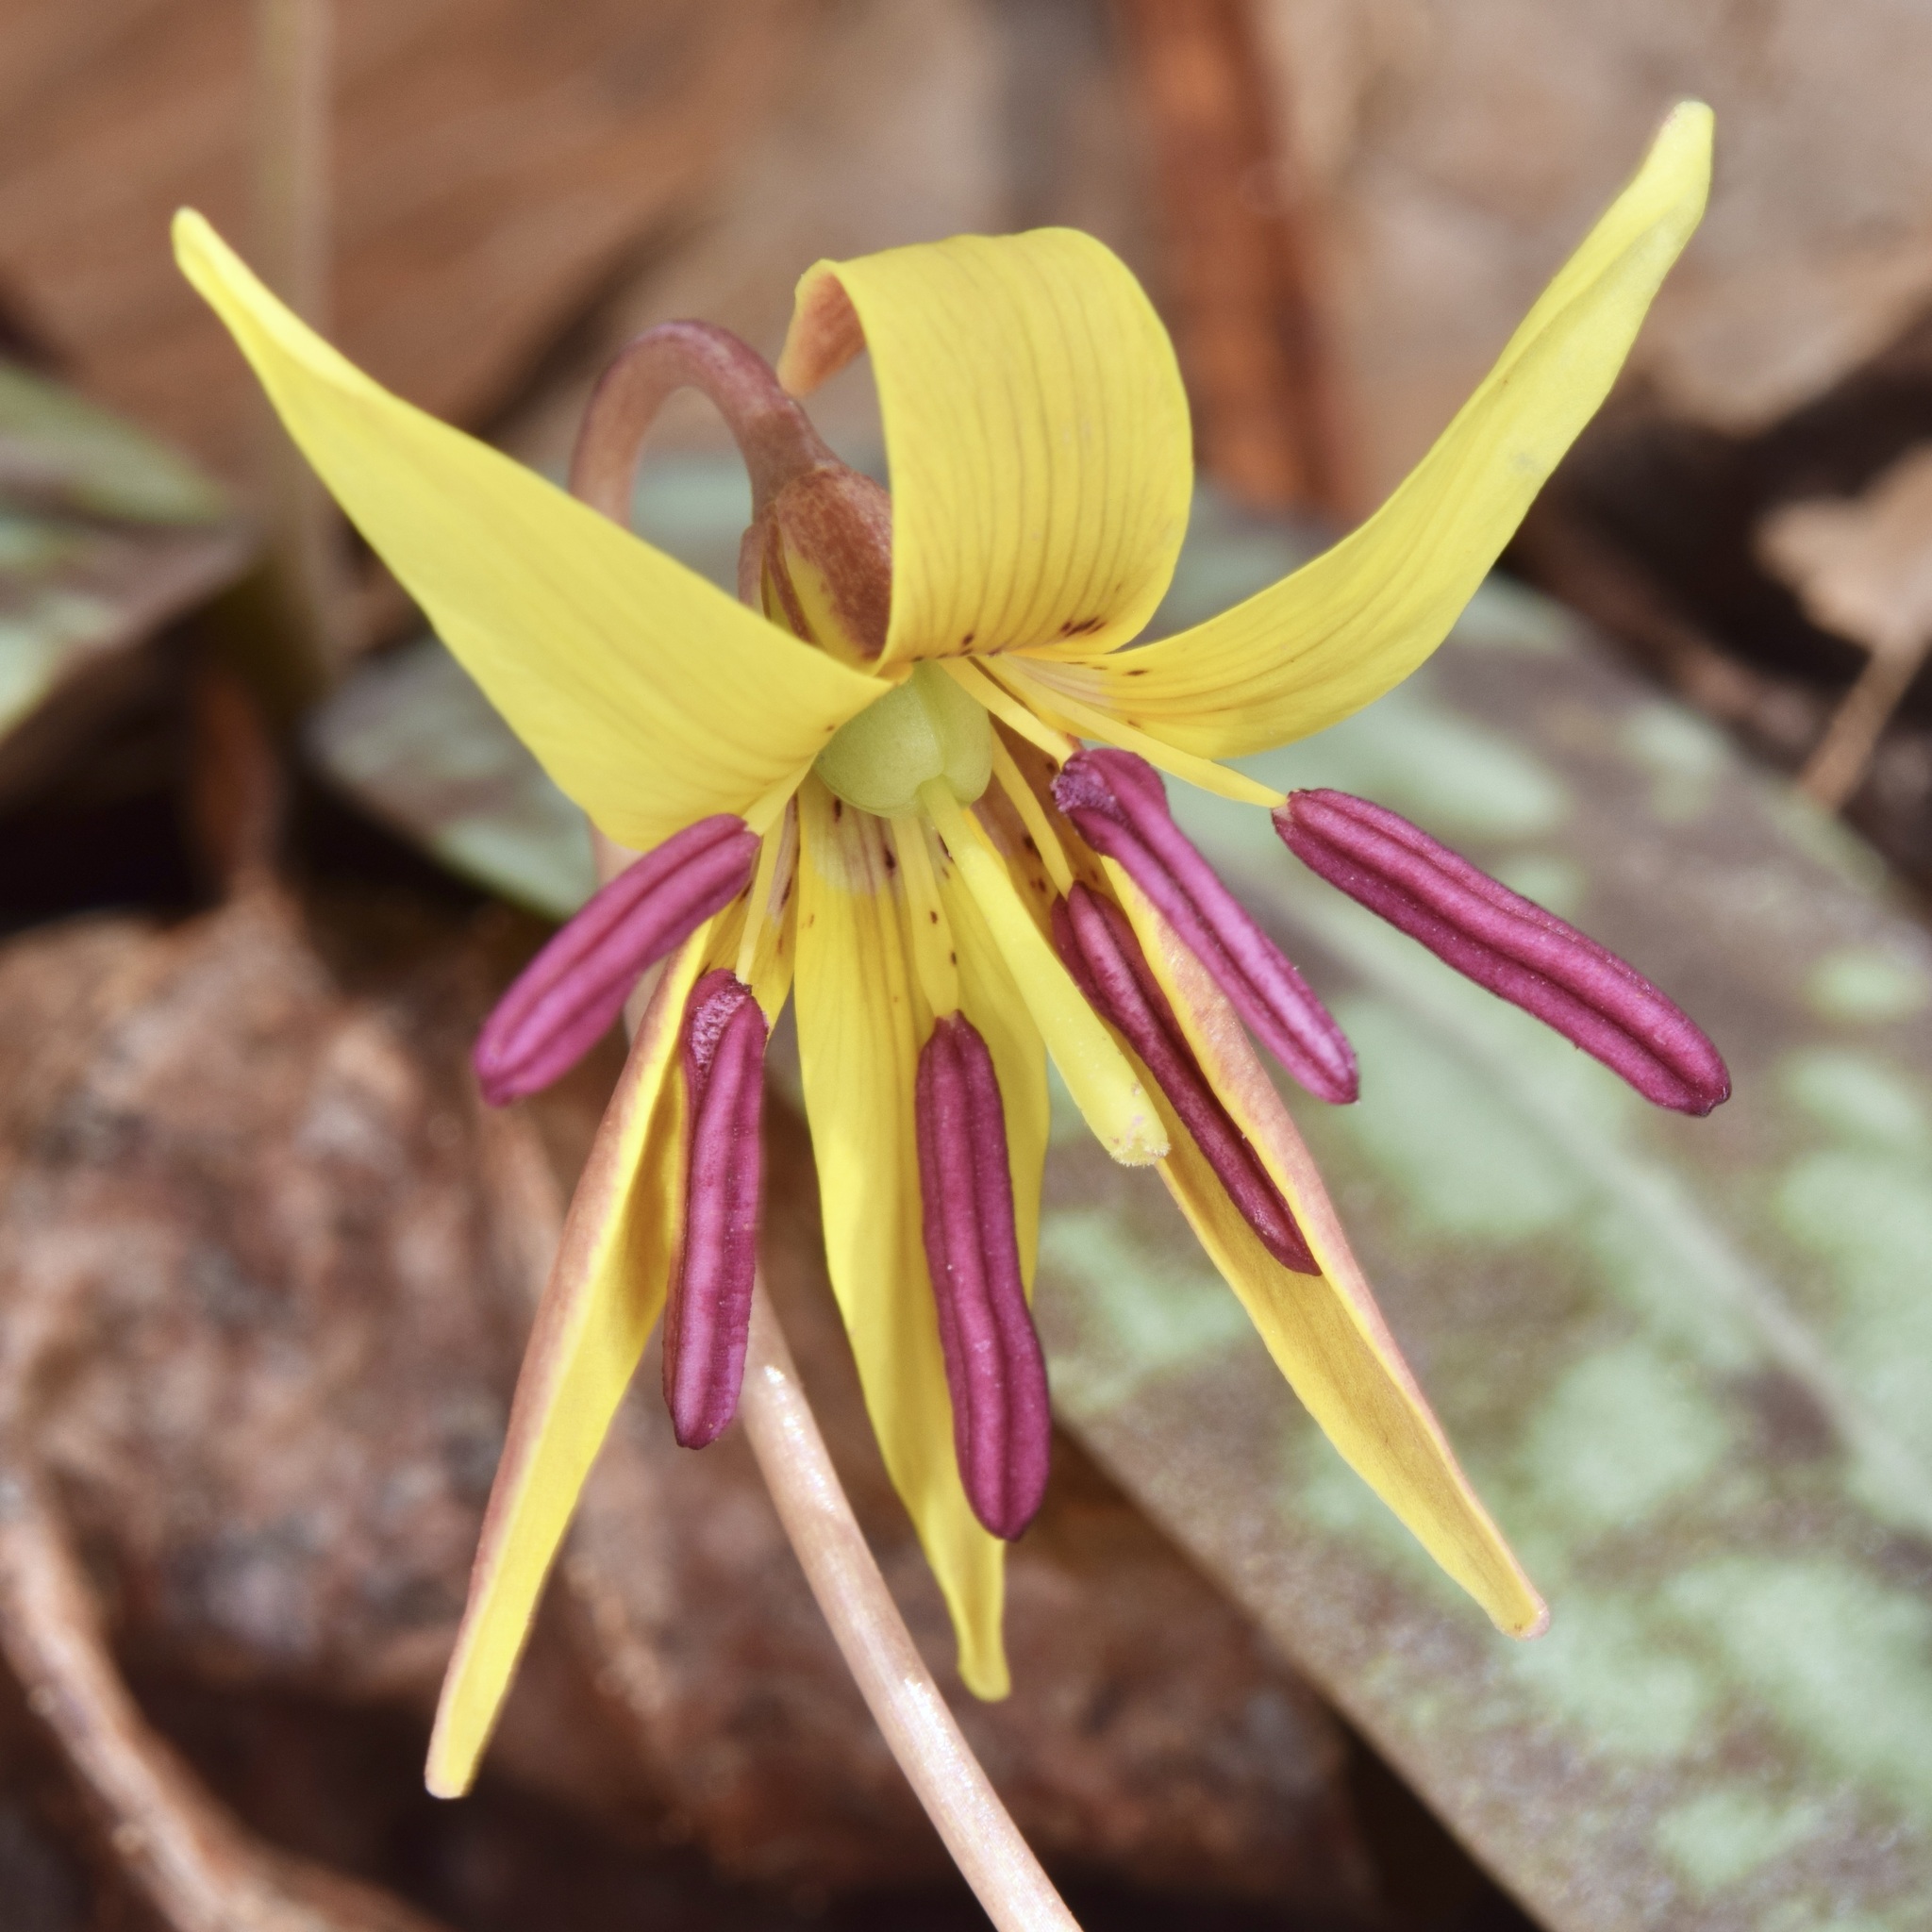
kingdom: Plantae
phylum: Tracheophyta
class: Liliopsida
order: Liliales
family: Liliaceae
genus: Erythronium
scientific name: Erythronium umbilicatum
